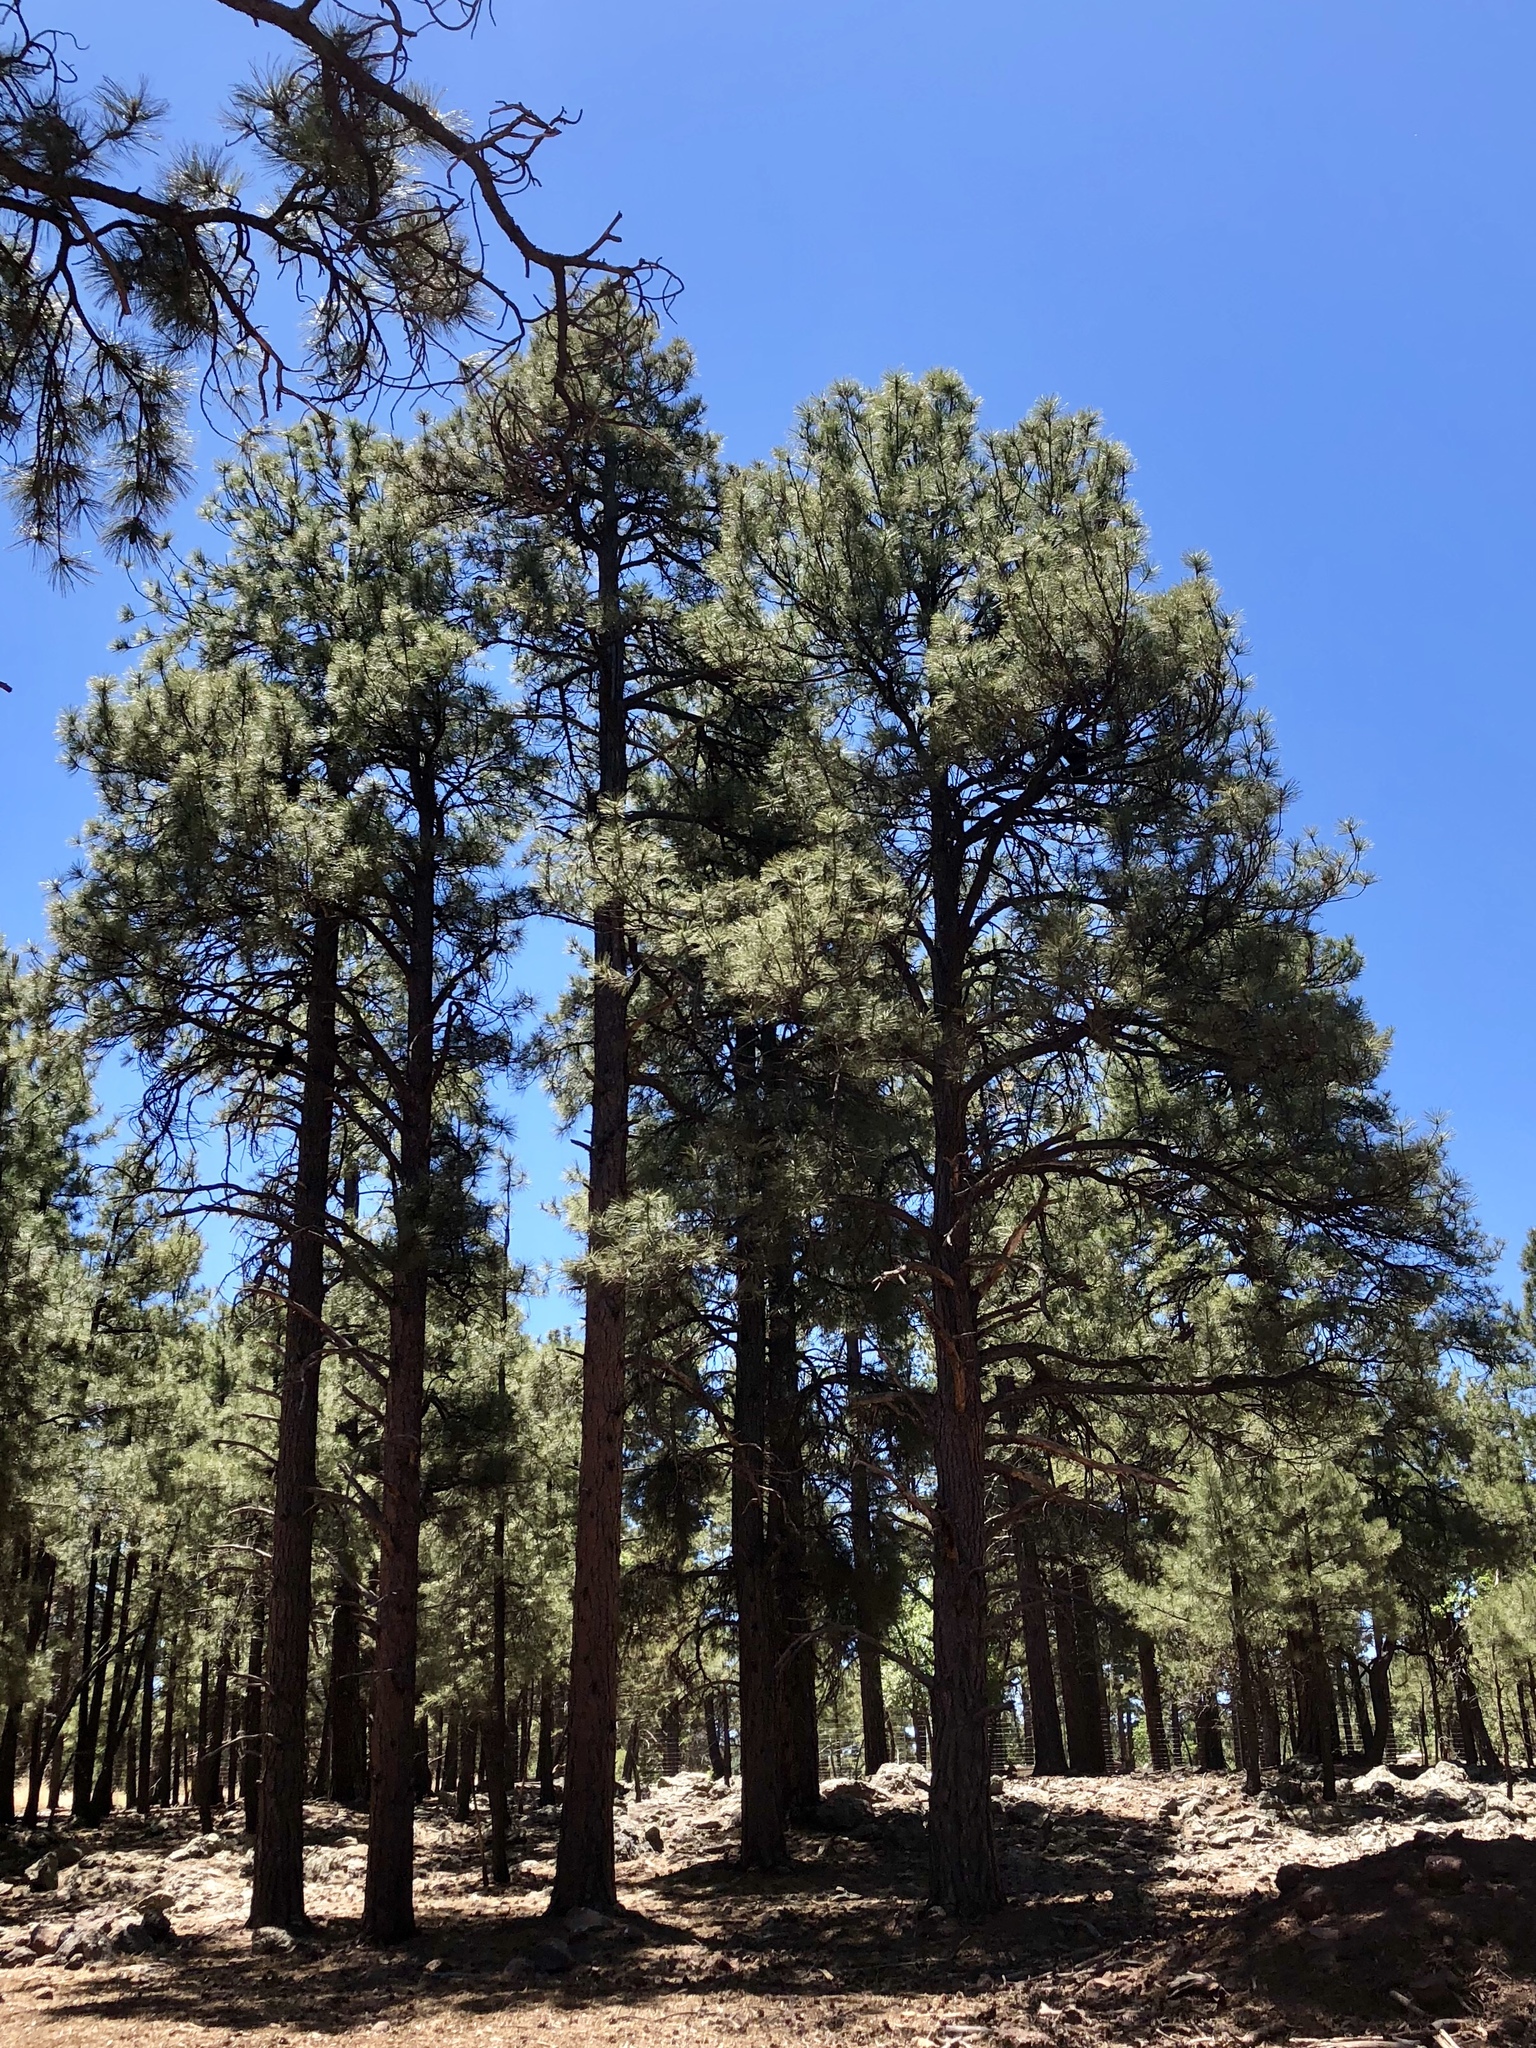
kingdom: Plantae
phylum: Tracheophyta
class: Pinopsida
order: Pinales
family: Pinaceae
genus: Pinus
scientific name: Pinus ponderosa
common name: Western yellow-pine
